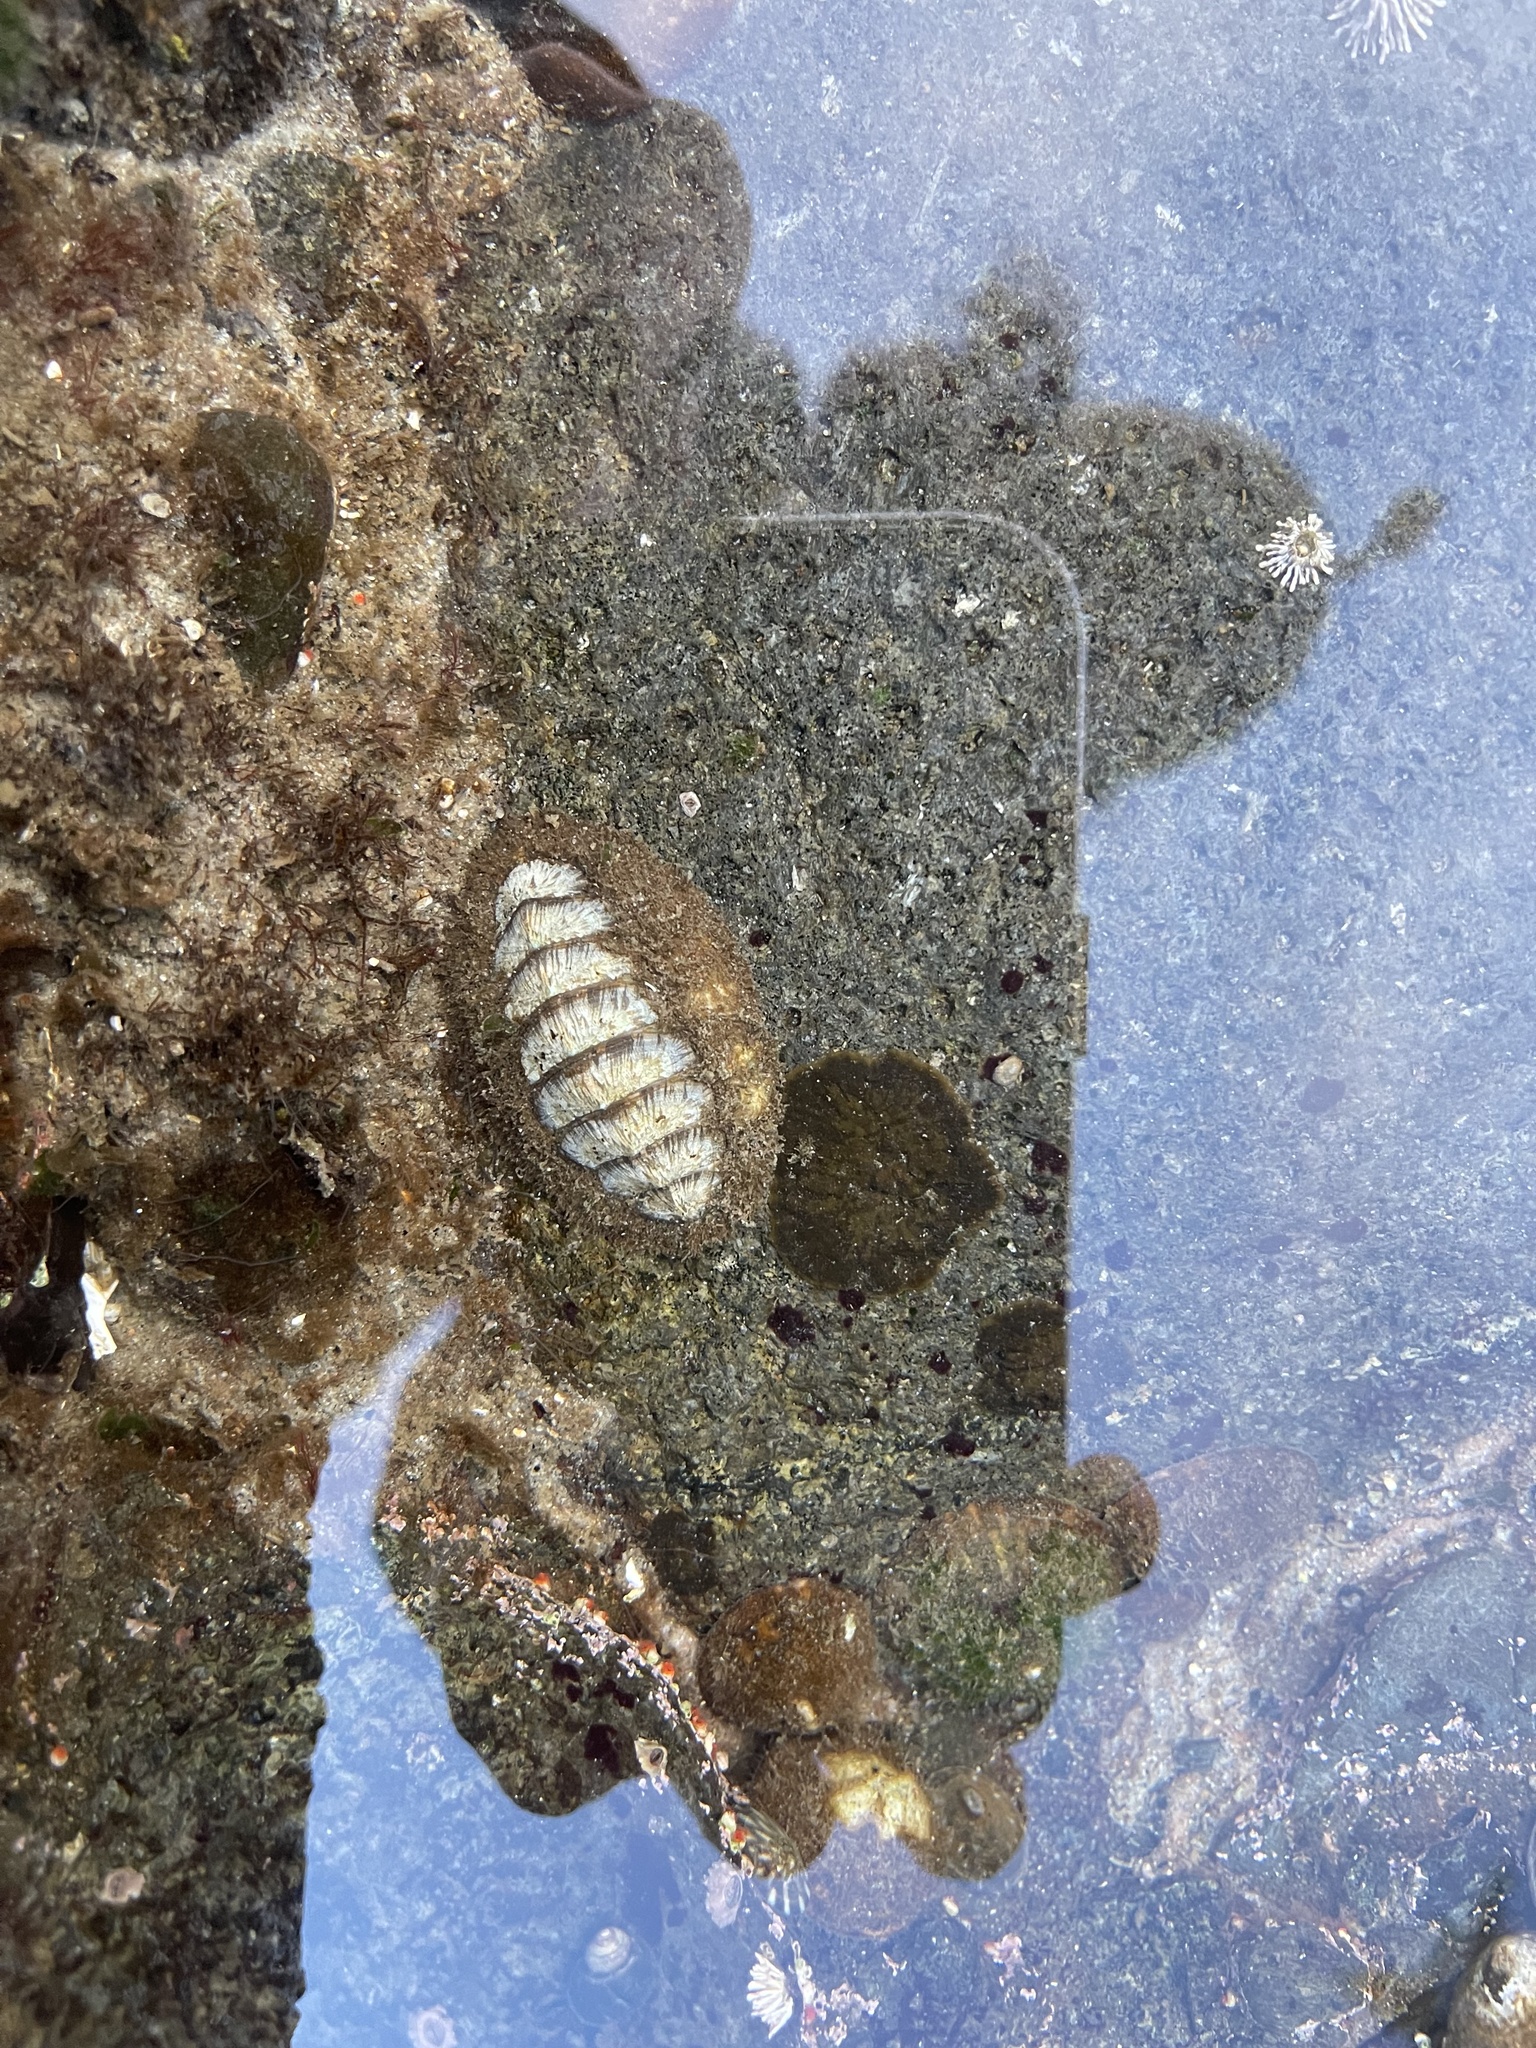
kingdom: Animalia
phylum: Mollusca
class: Polyplacophora
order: Chitonida
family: Mopaliidae
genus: Mopalia
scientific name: Mopalia lignosa
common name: Woody chiton
